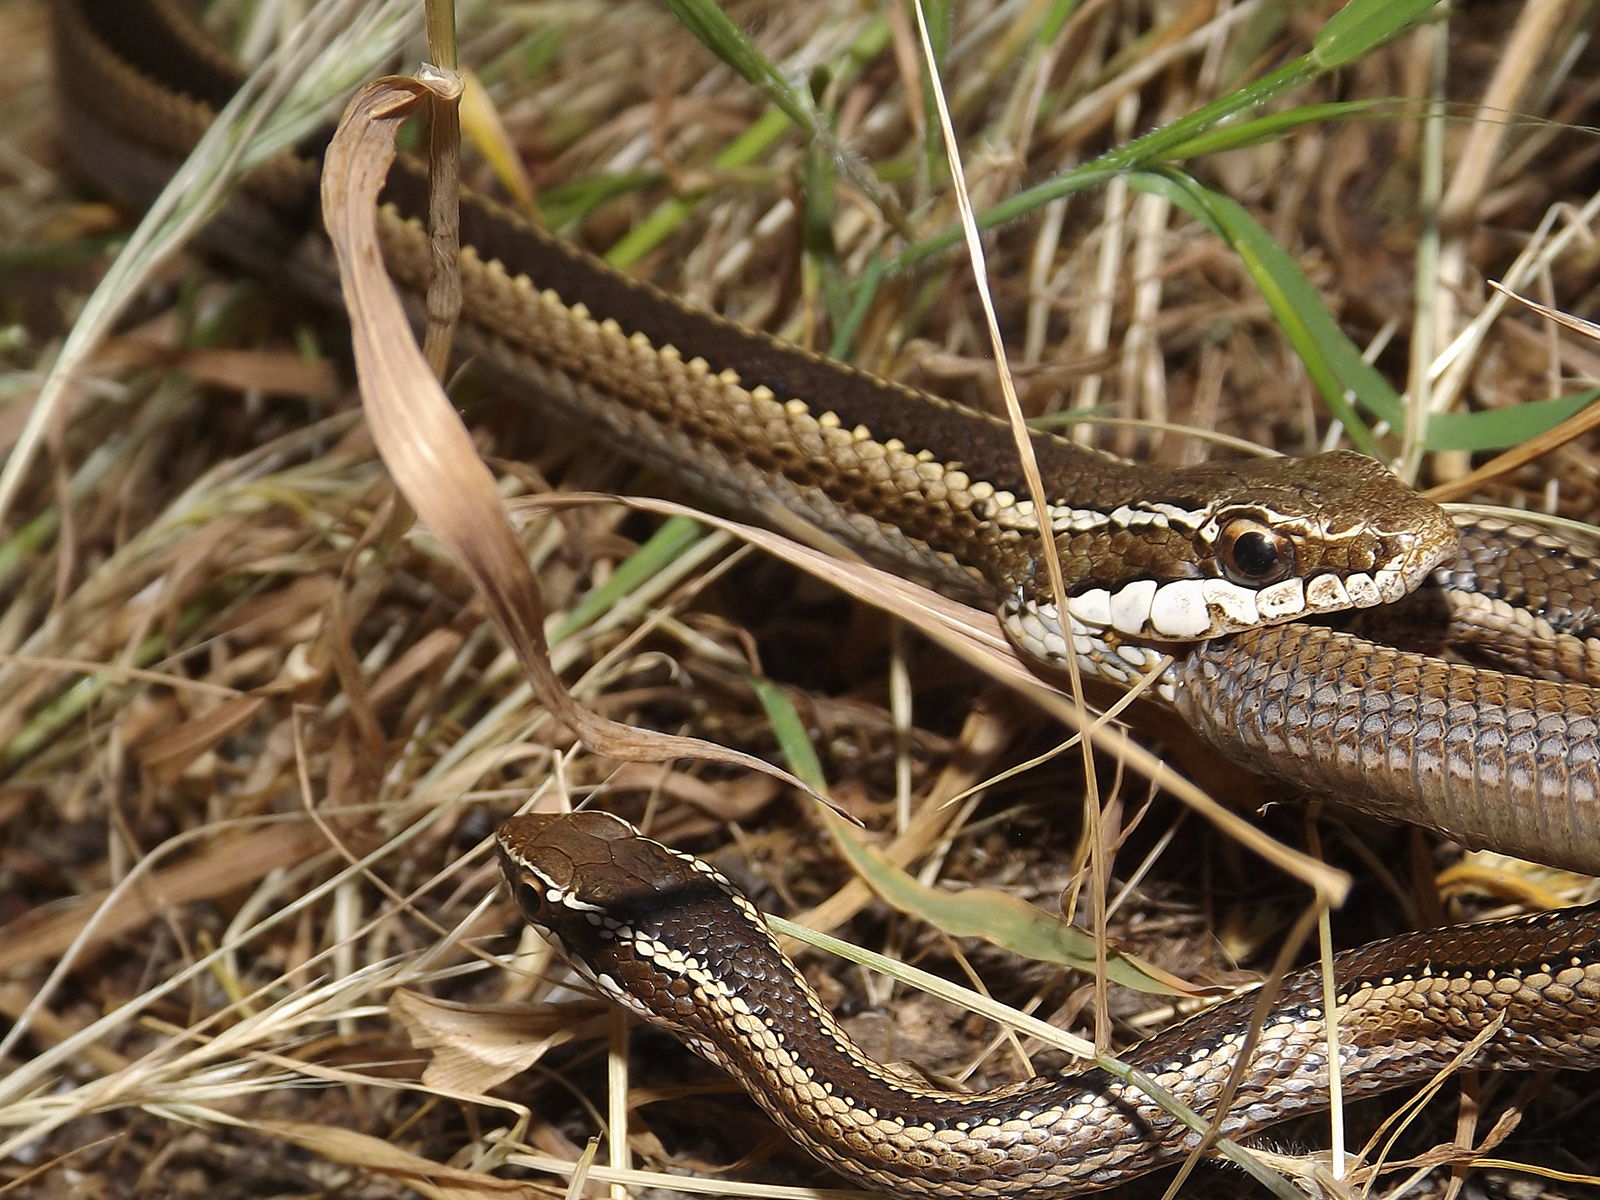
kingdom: Animalia
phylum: Chordata
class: Squamata
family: Colubridae
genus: Philodryas
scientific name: Philodryas chamissonis
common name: Chilean green racer
